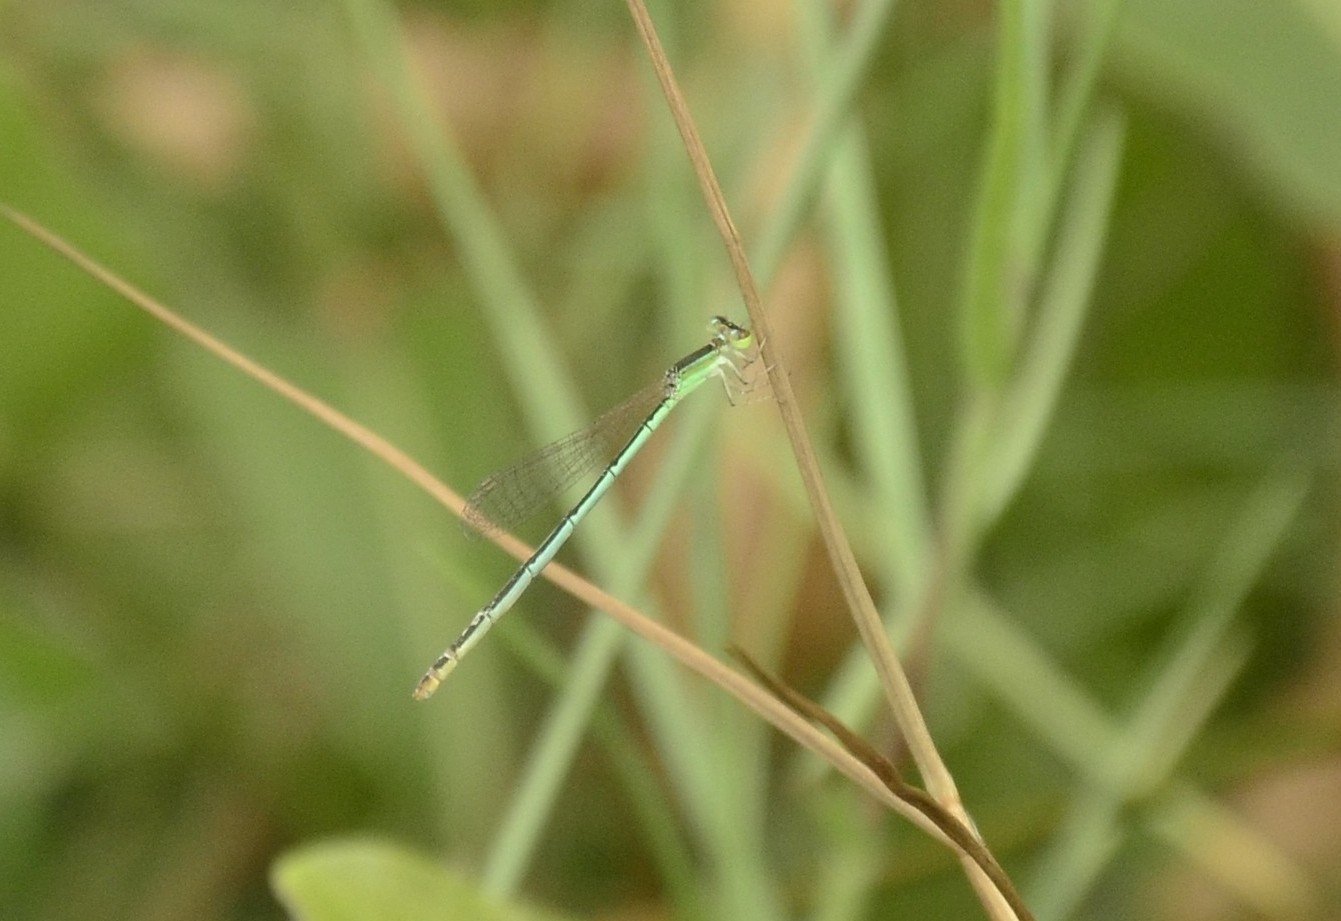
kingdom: Animalia
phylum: Arthropoda
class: Insecta
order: Odonata
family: Coenagrionidae
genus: Agriocnemis
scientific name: Agriocnemis pygmaea
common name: Pygmy wisp
